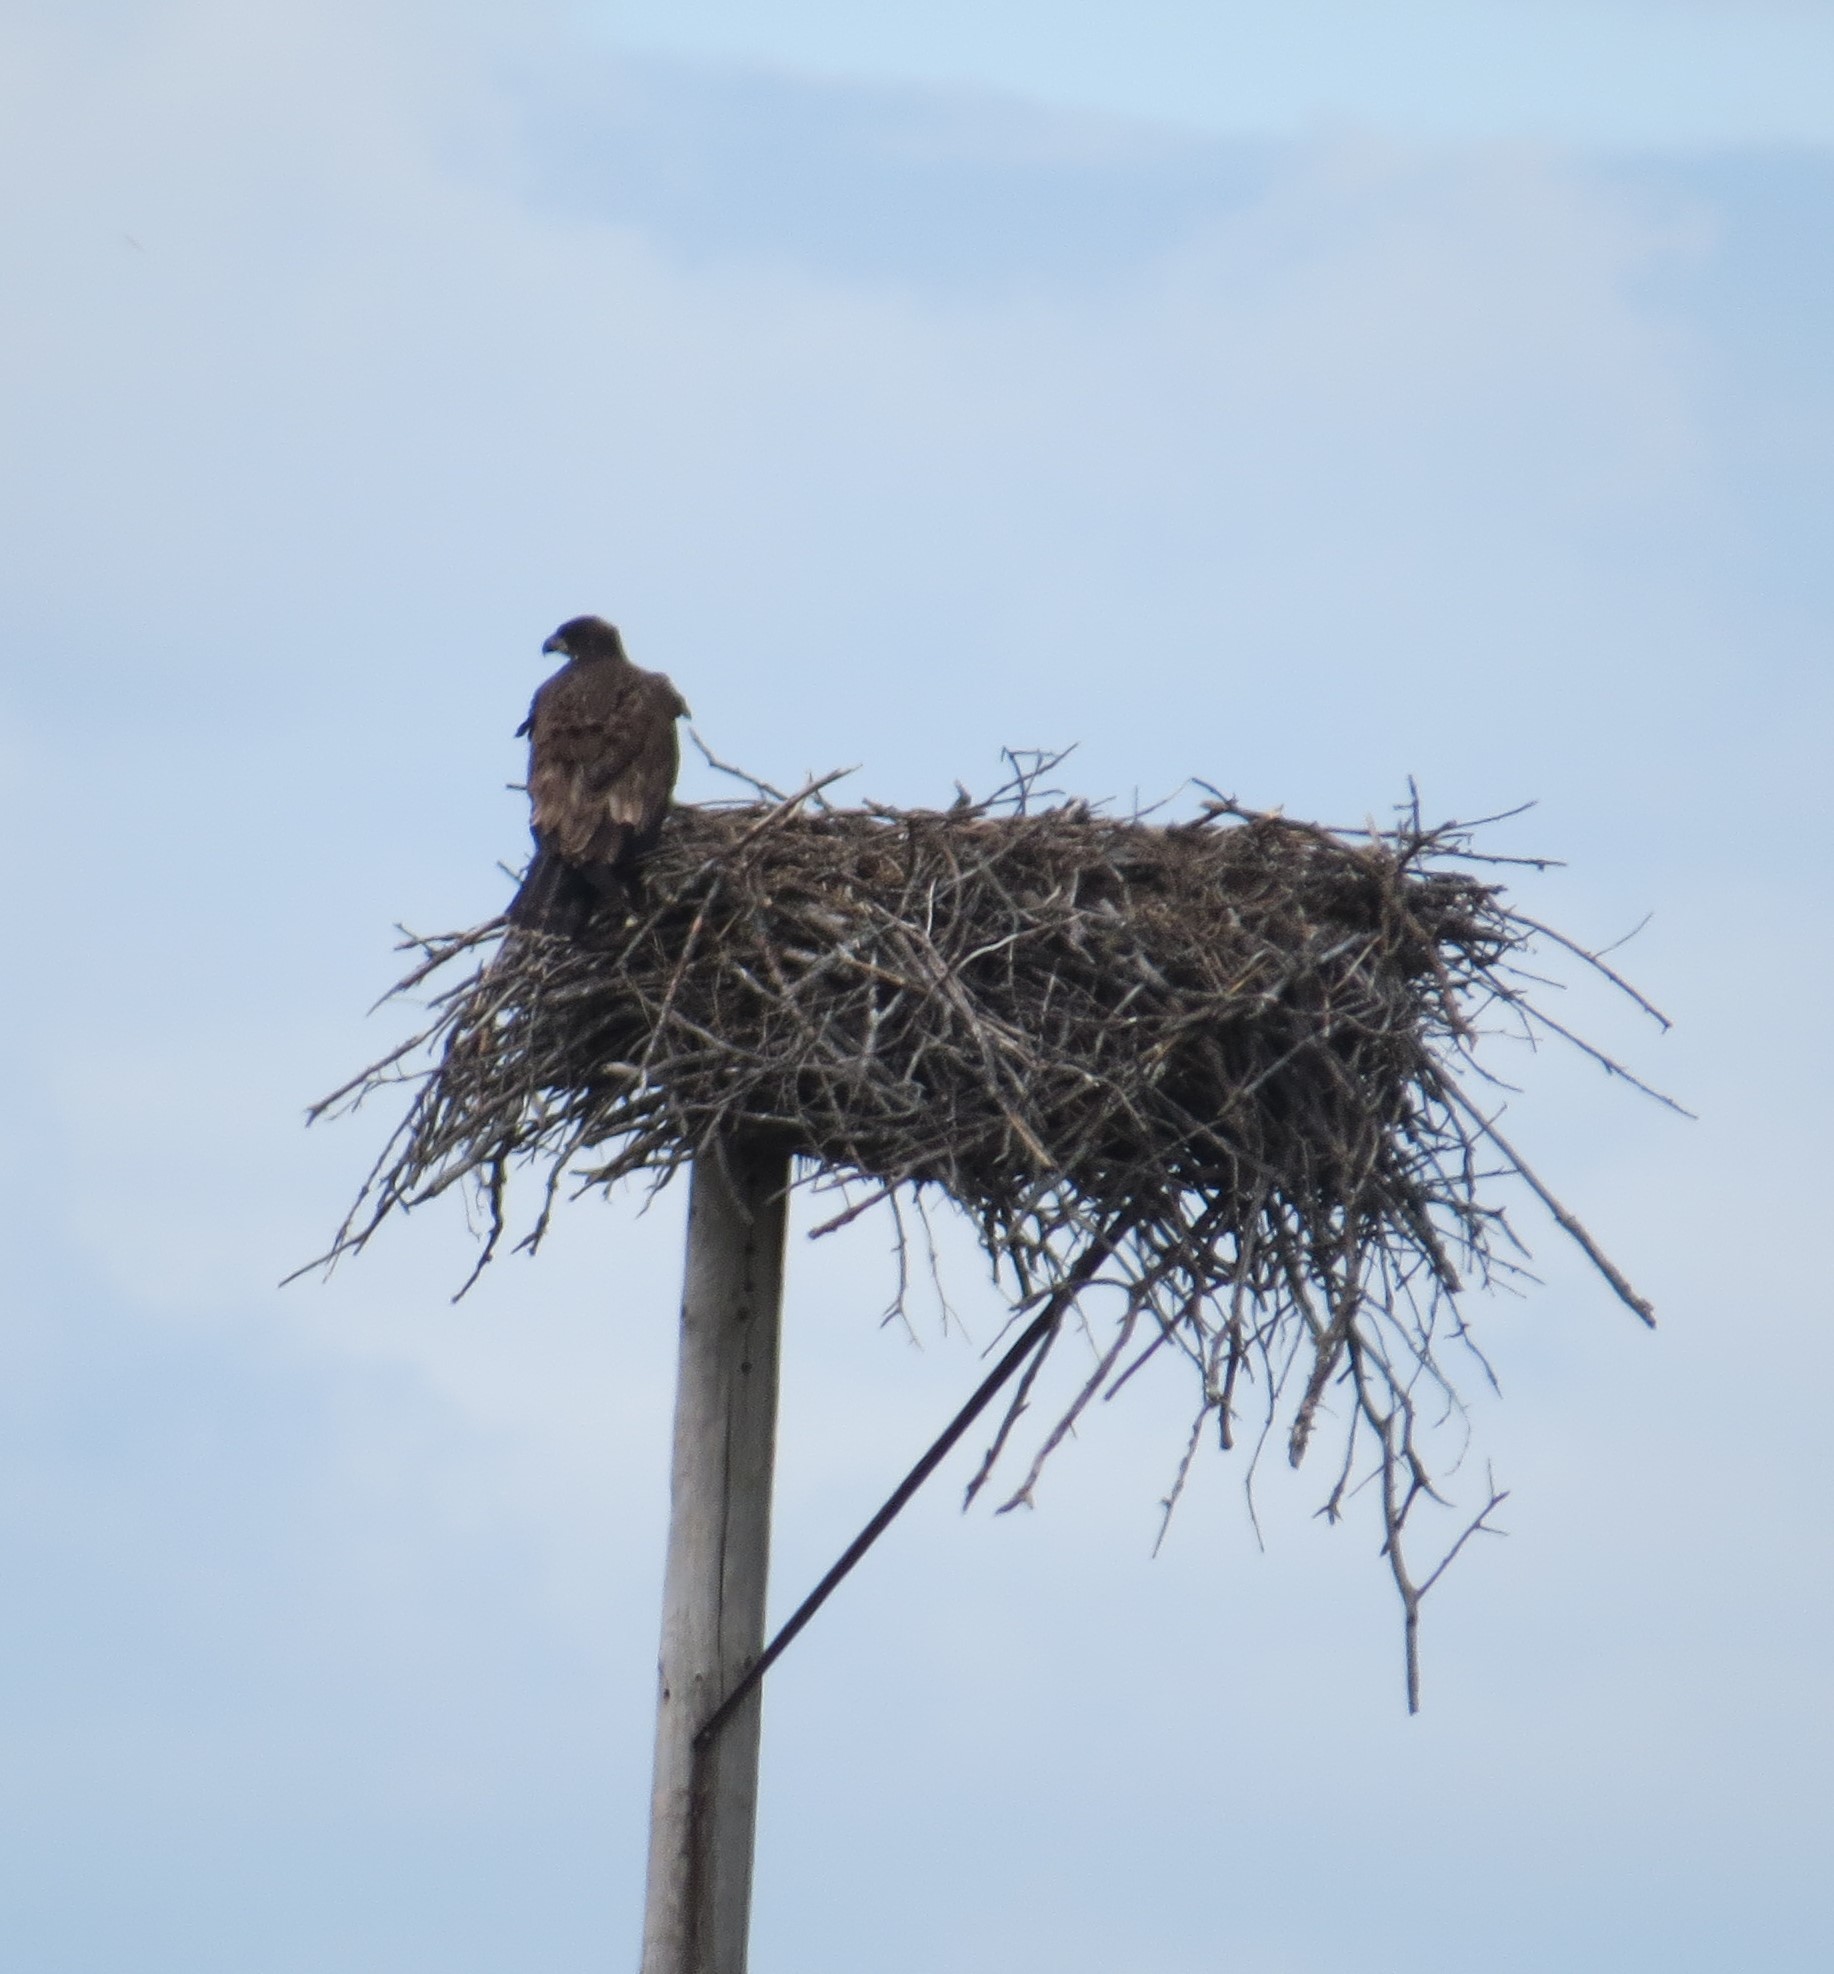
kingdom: Animalia
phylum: Chordata
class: Aves
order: Accipitriformes
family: Accipitridae
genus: Haliaeetus
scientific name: Haliaeetus leucocephalus
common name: Bald eagle
